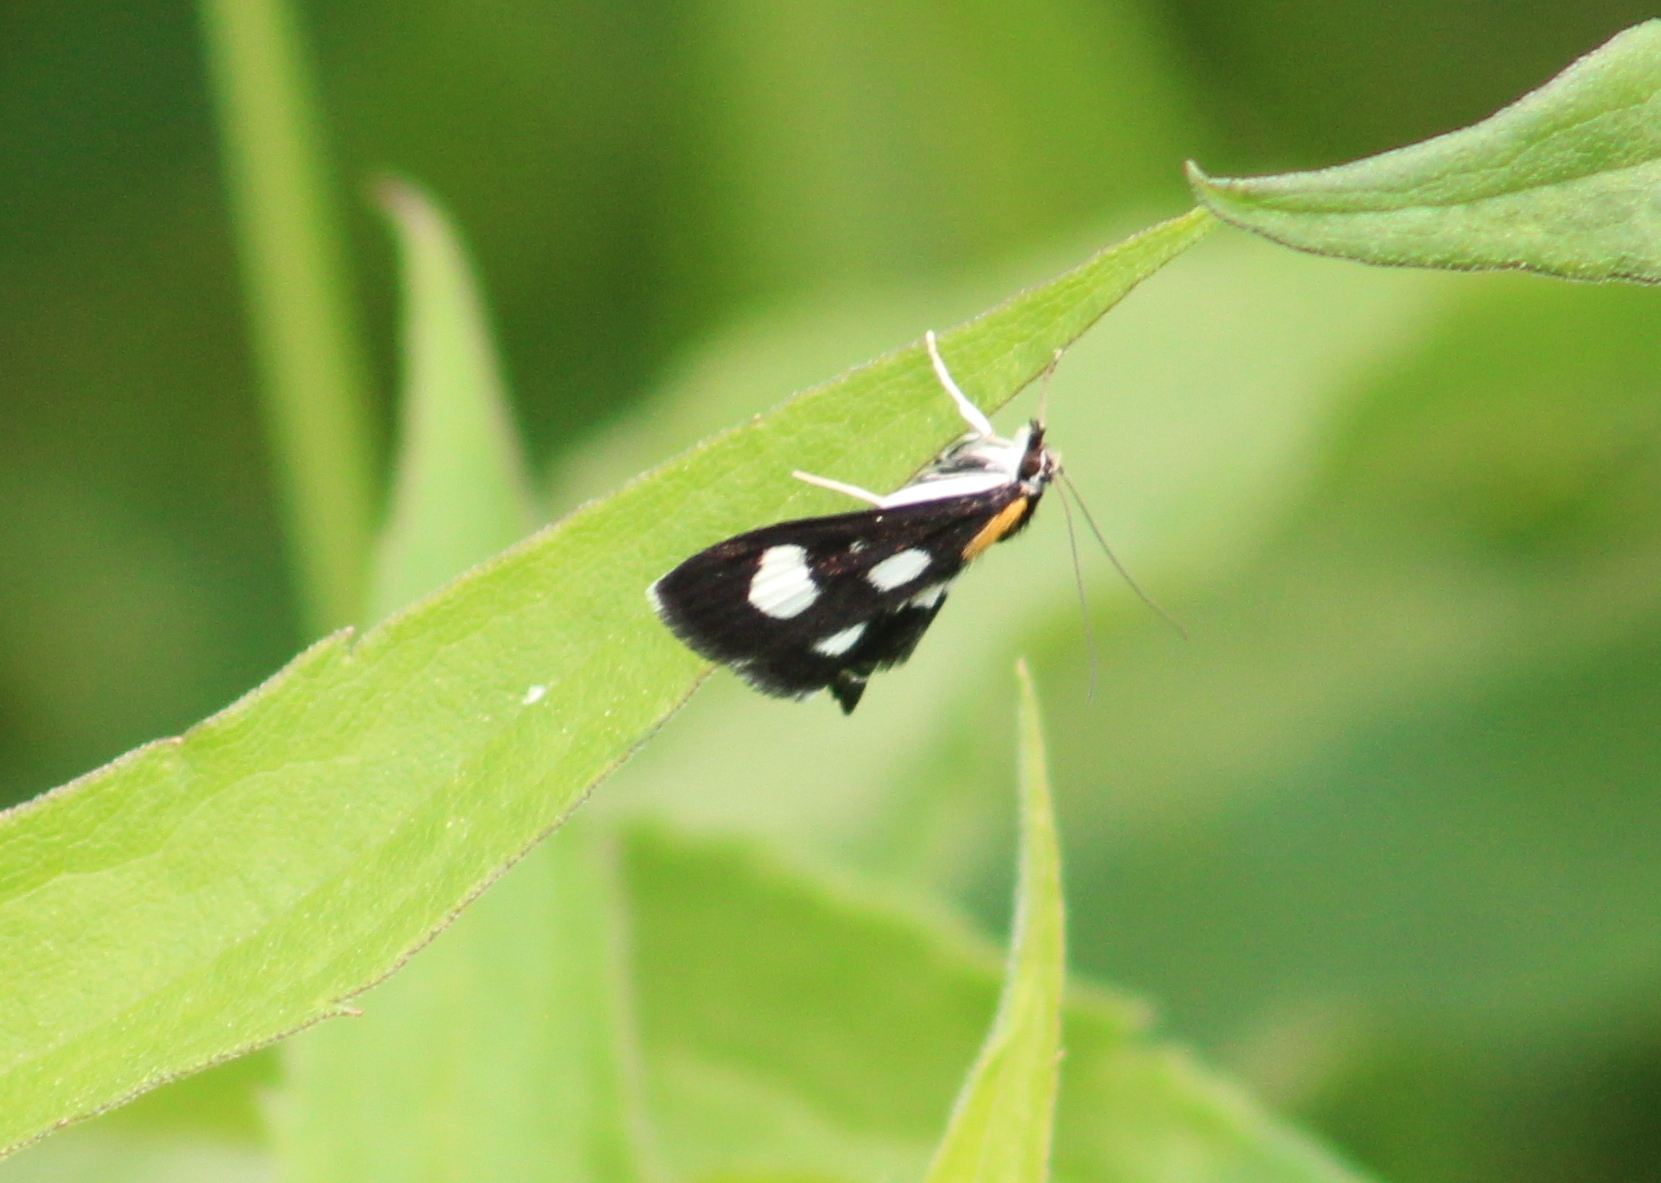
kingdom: Animalia
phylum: Arthropoda
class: Insecta
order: Lepidoptera
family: Crambidae
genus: Anania
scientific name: Anania funebris
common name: White-spotted sable moth
